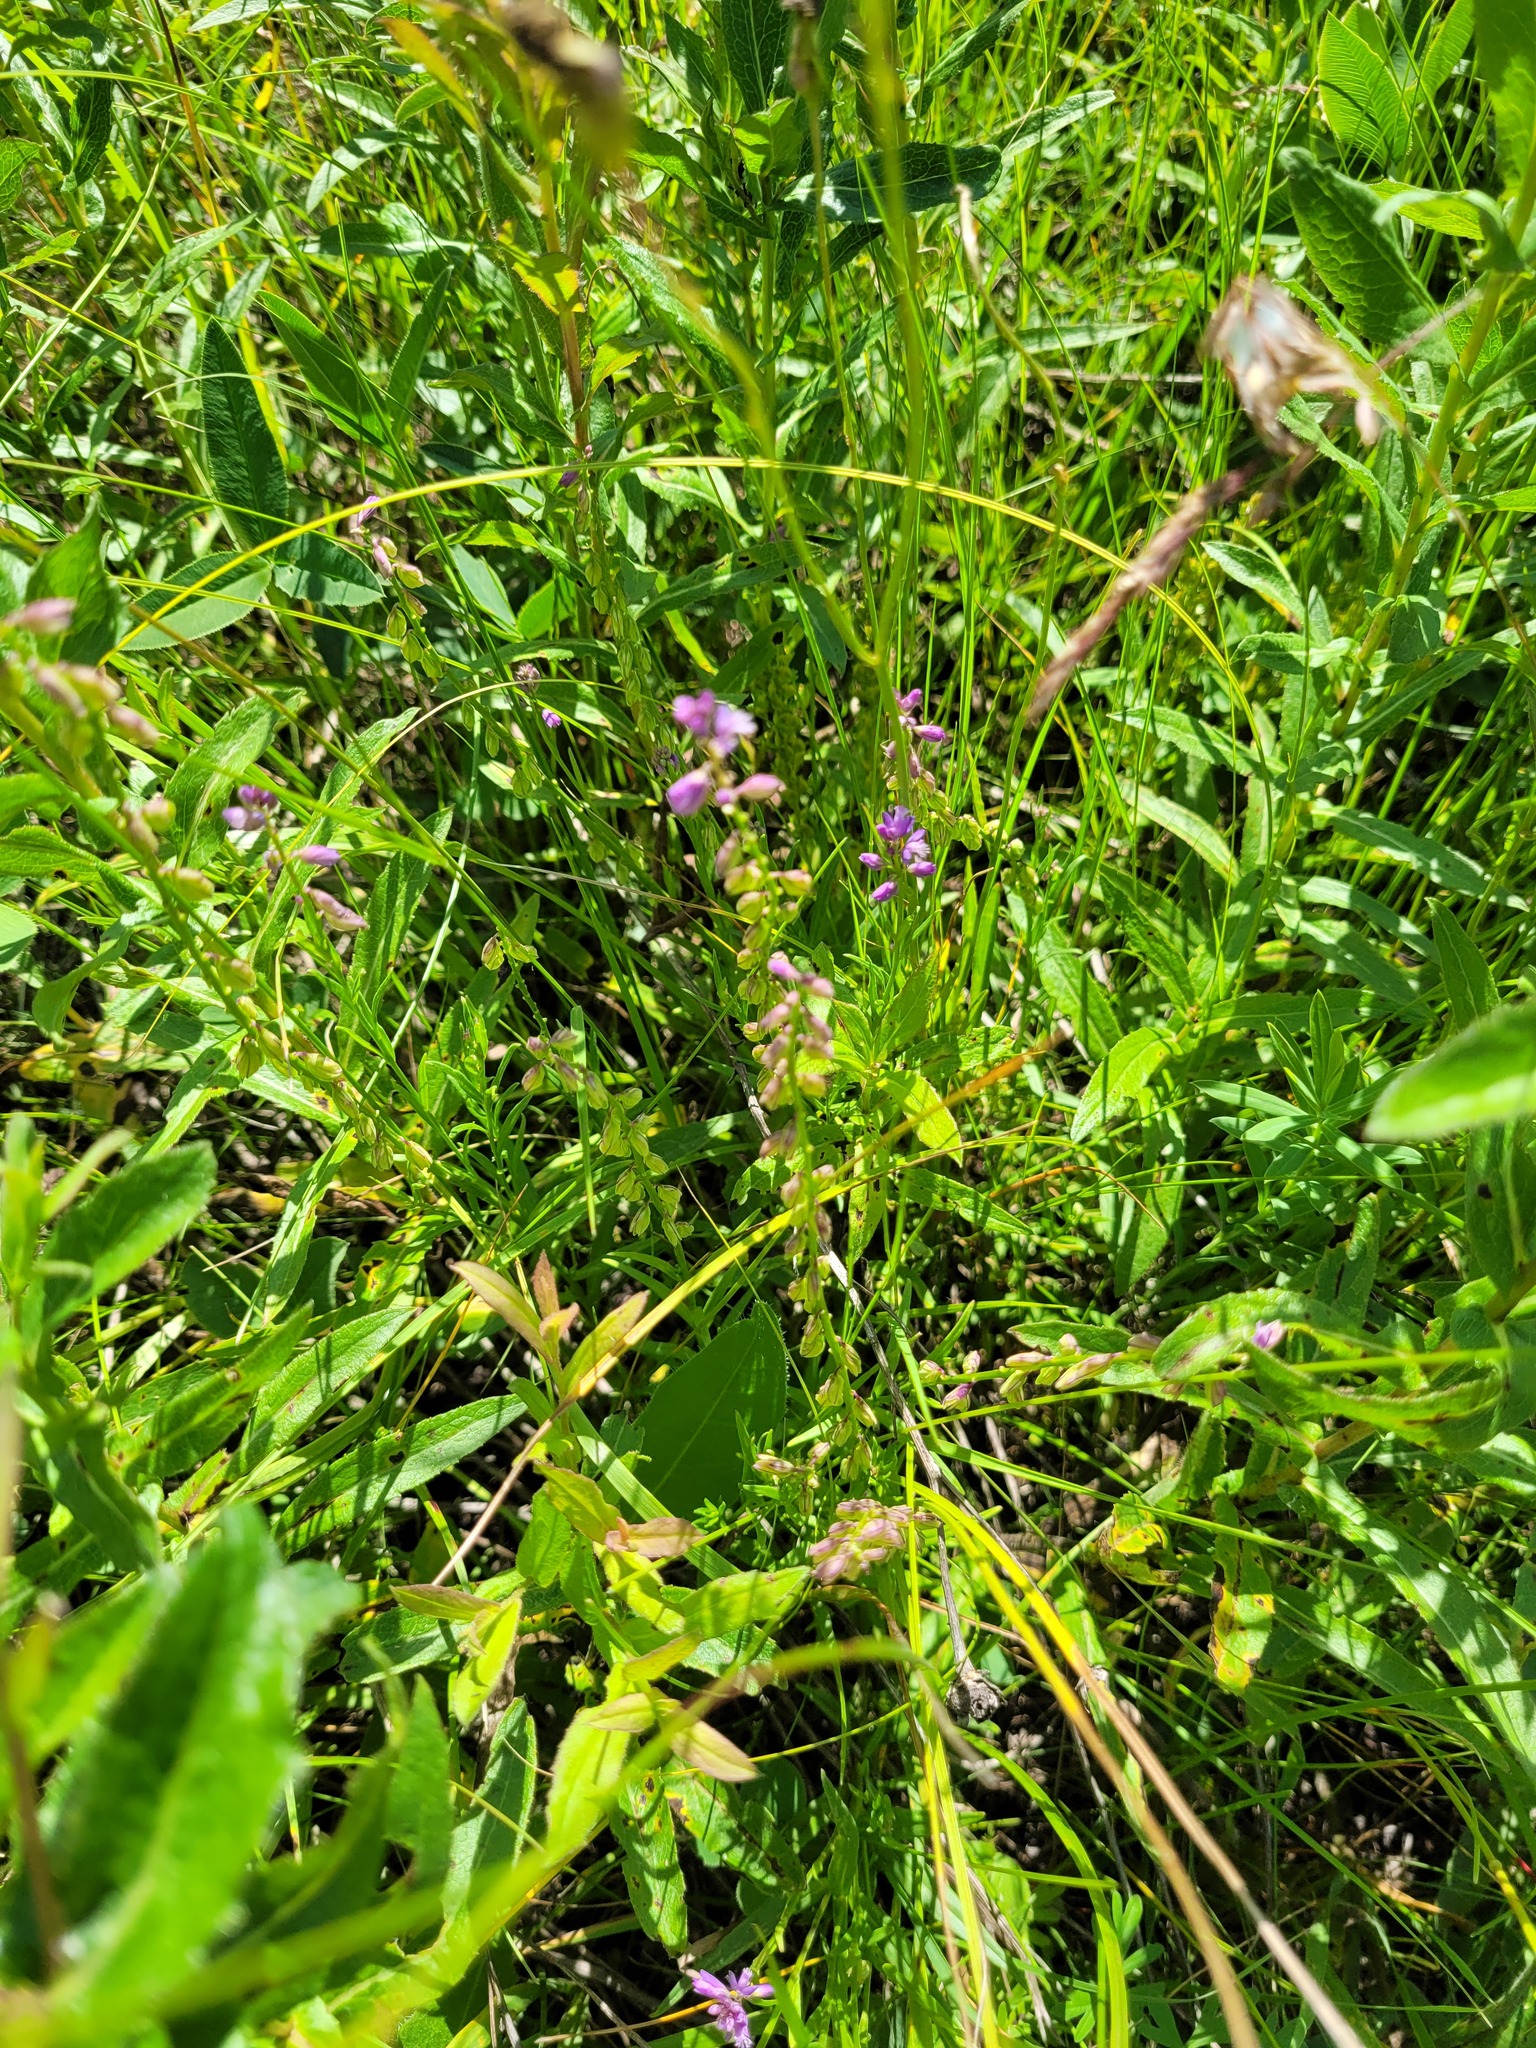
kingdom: Plantae
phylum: Tracheophyta
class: Magnoliopsida
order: Fabales
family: Polygalaceae
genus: Polygala
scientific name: Polygala comosa
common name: Tufted milkwort
